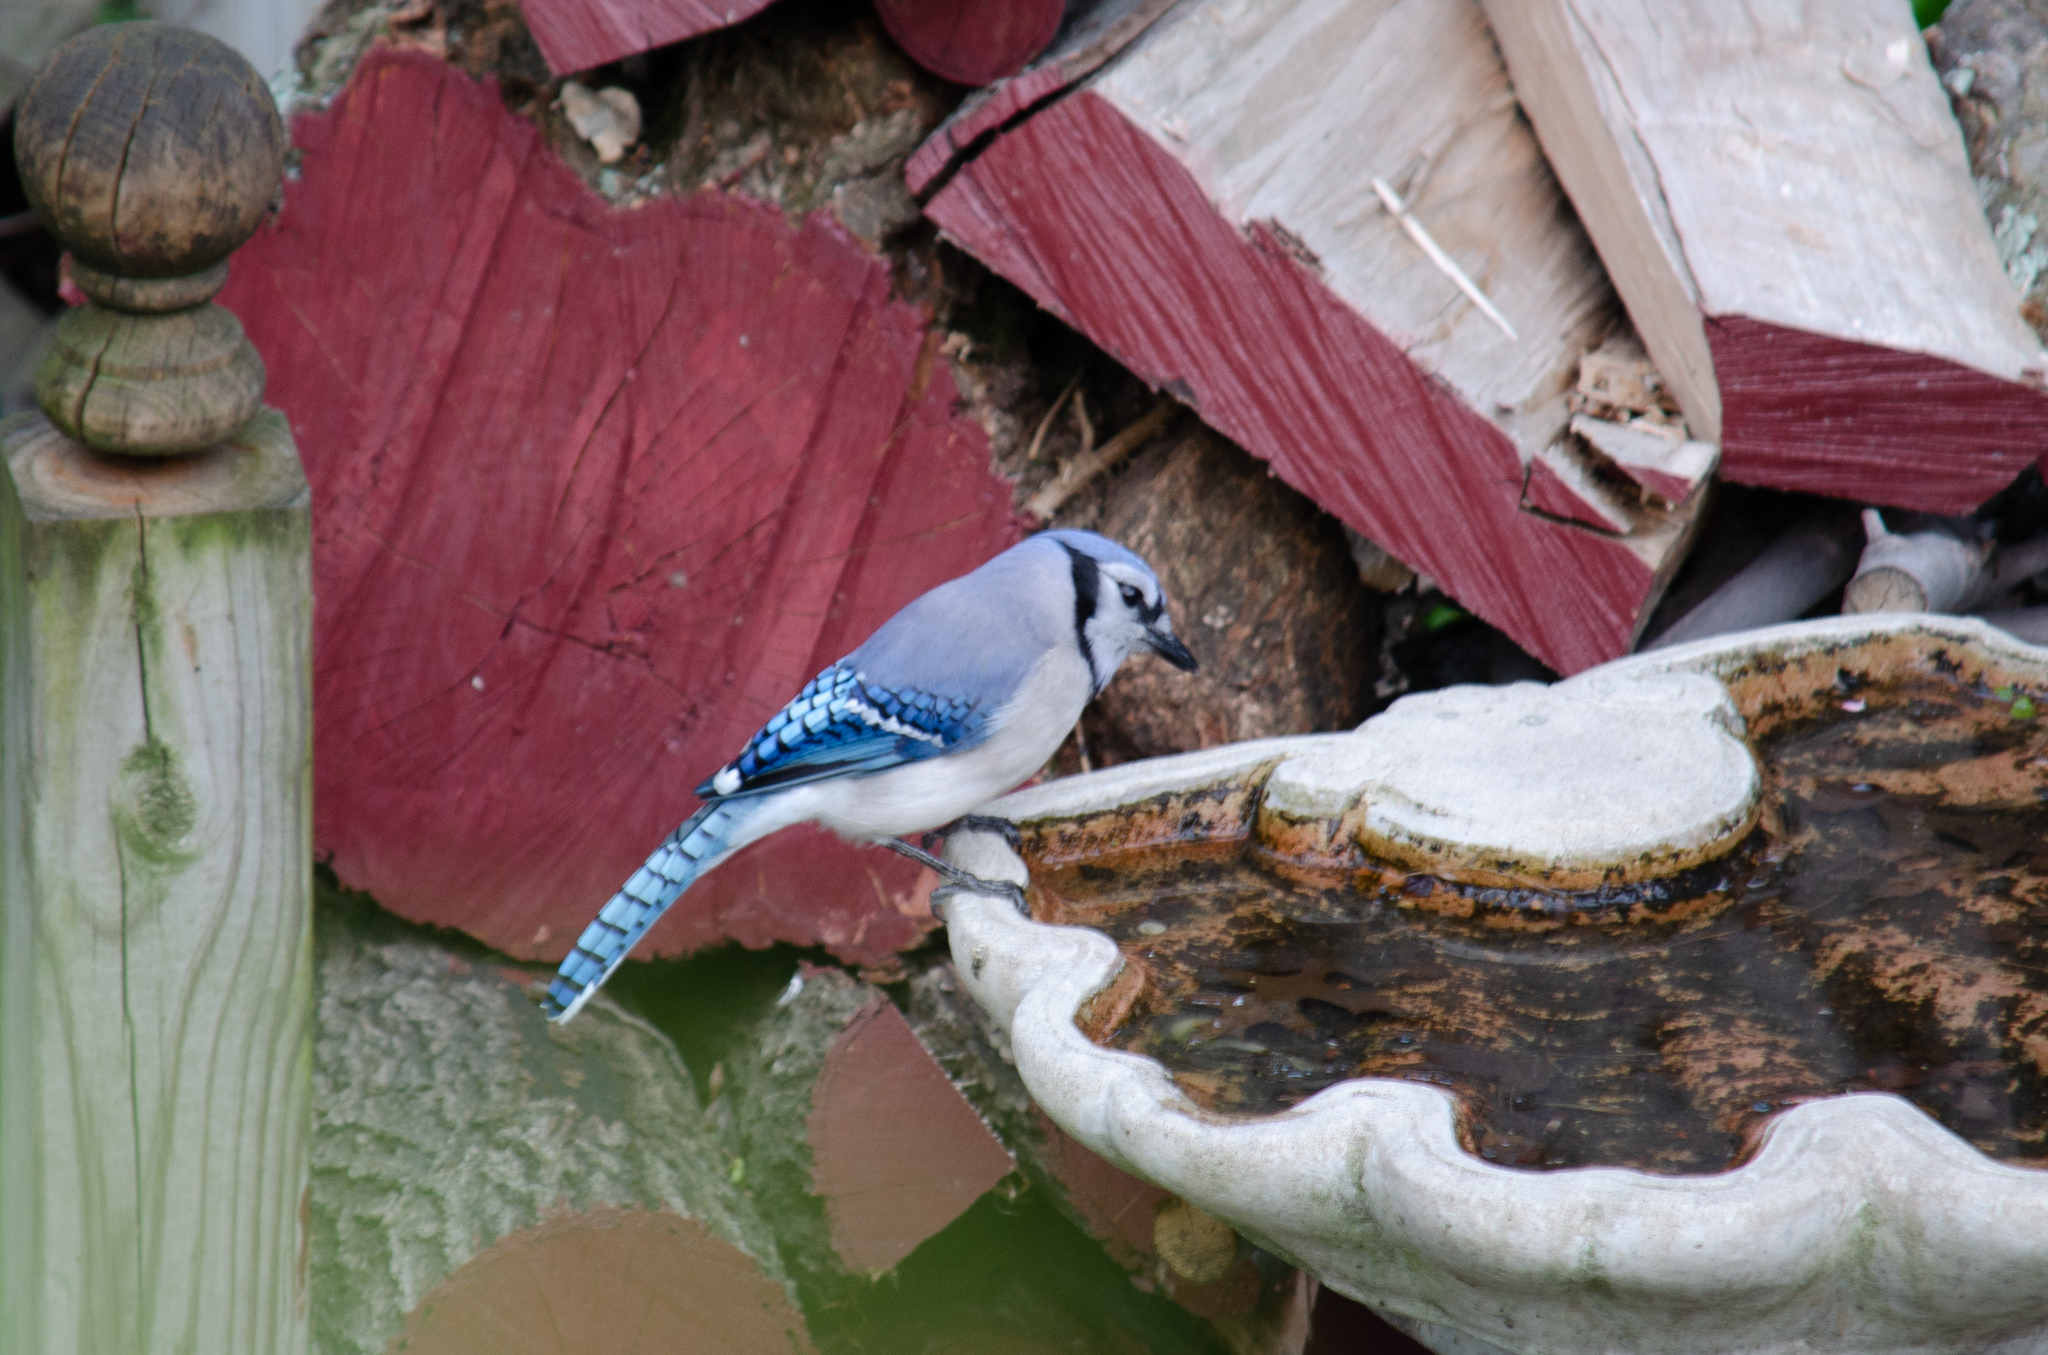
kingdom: Animalia
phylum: Chordata
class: Aves
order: Passeriformes
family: Corvidae
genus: Cyanocitta
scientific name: Cyanocitta cristata
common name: Blue jay
